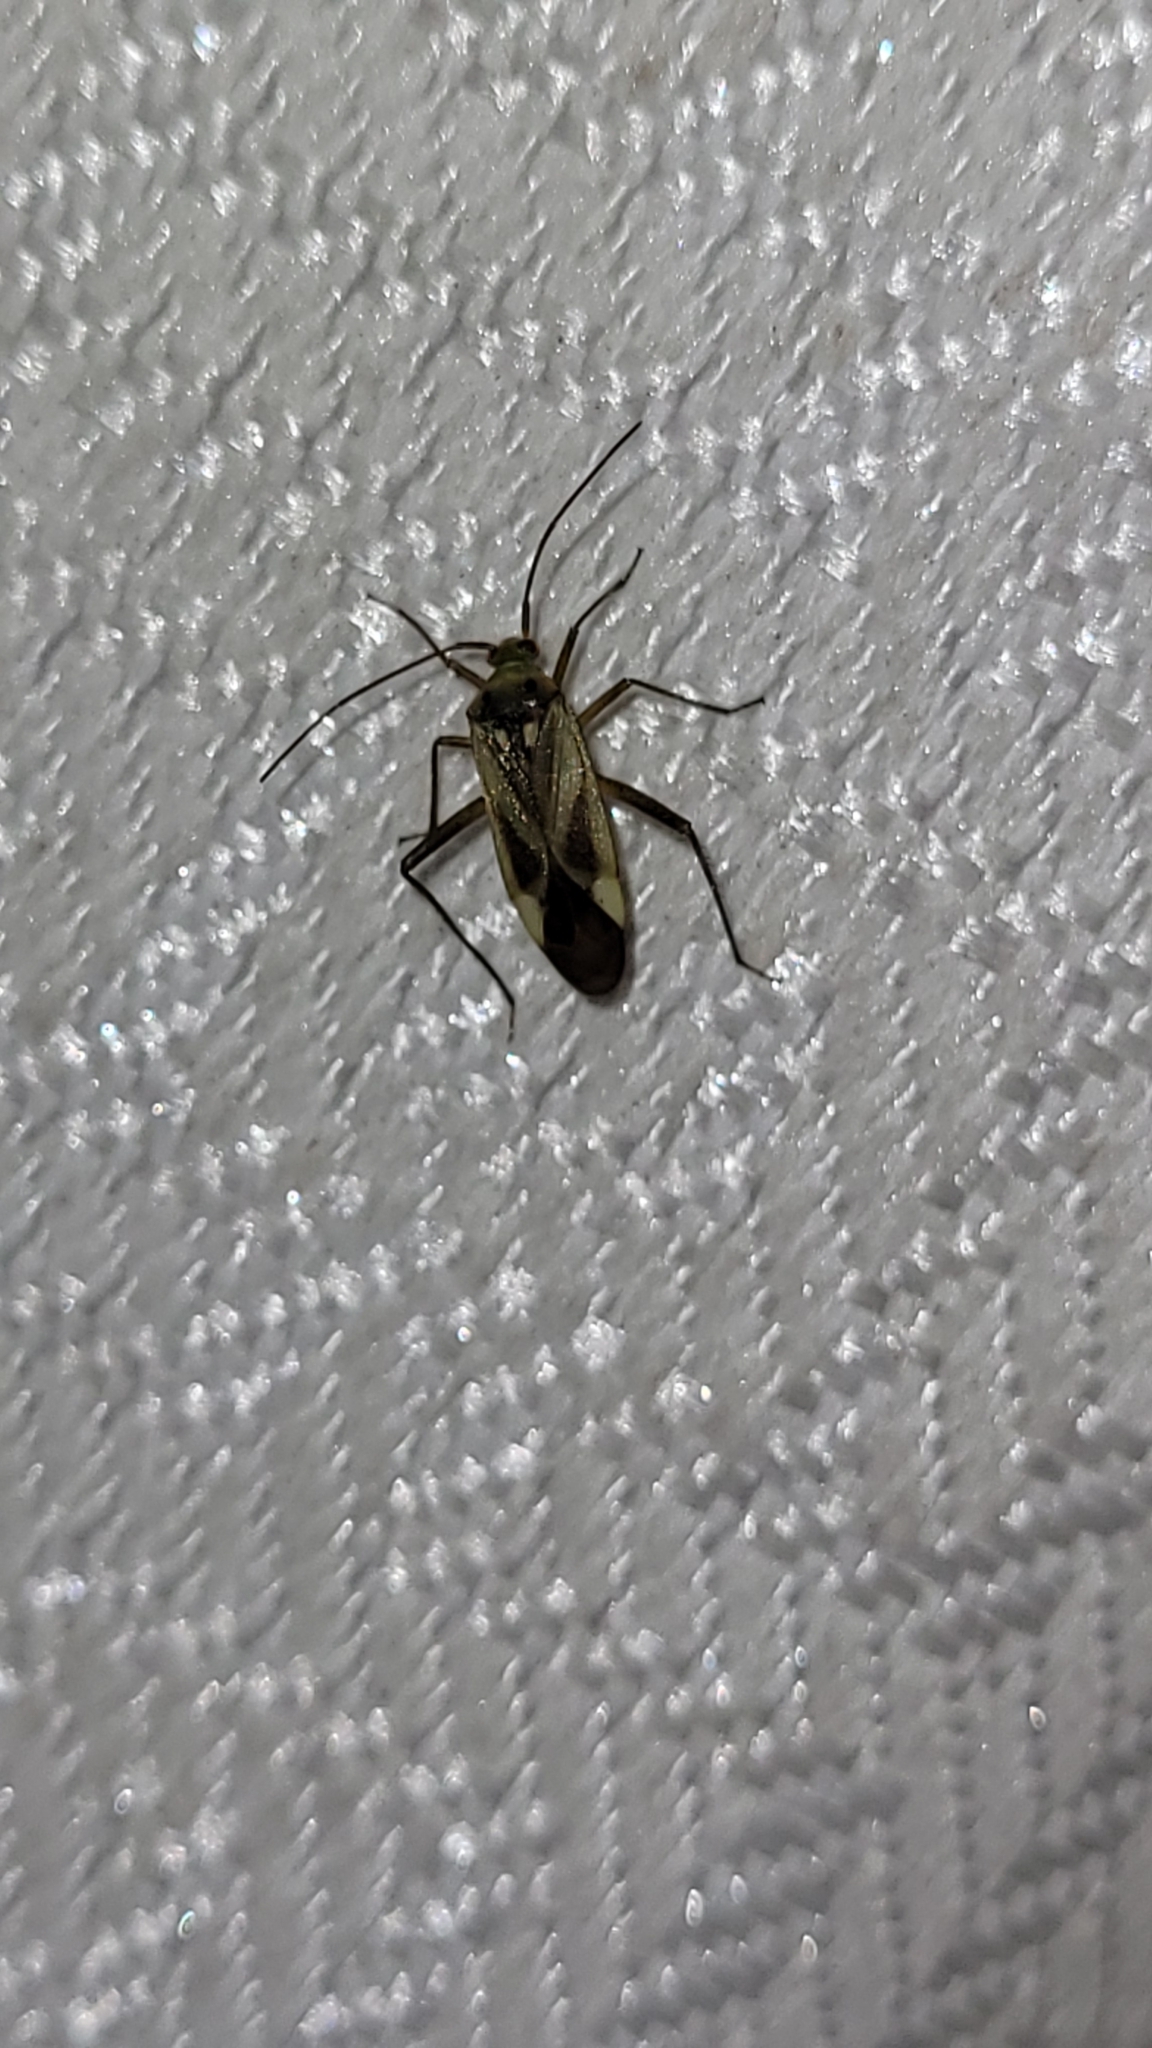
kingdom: Animalia
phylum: Arthropoda
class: Insecta
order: Hemiptera
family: Miridae
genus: Adelphocoris
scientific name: Adelphocoris lineolatus
